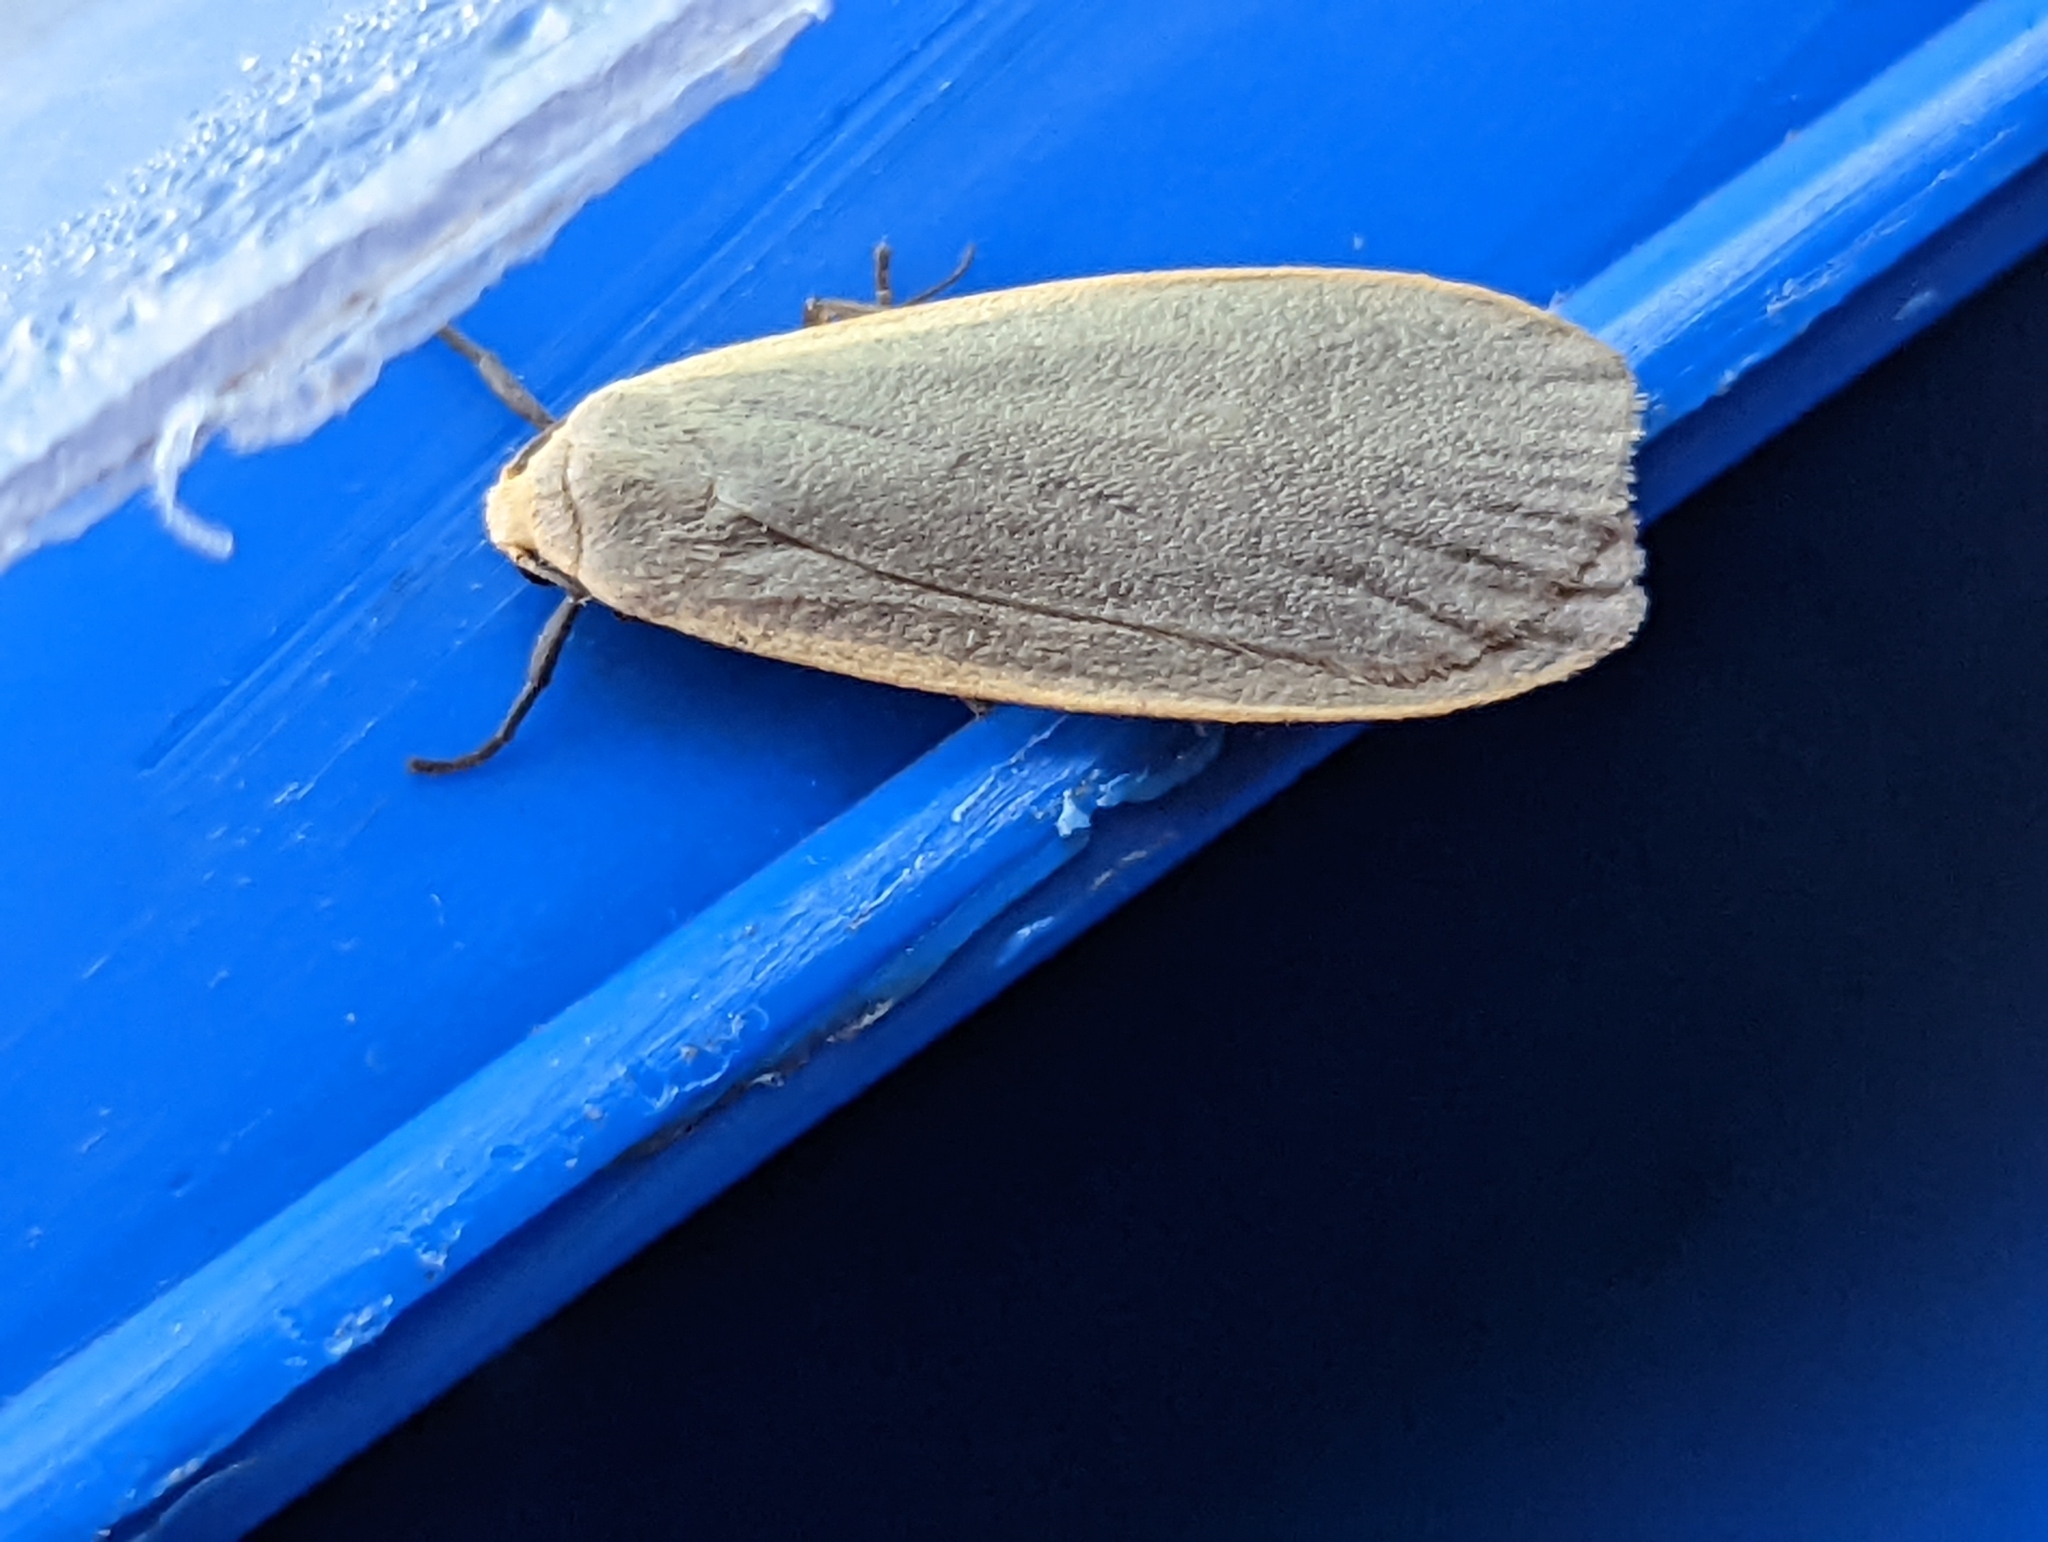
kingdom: Animalia
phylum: Arthropoda
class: Insecta
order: Lepidoptera
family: Erebidae
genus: Collita
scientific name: Collita griseola
